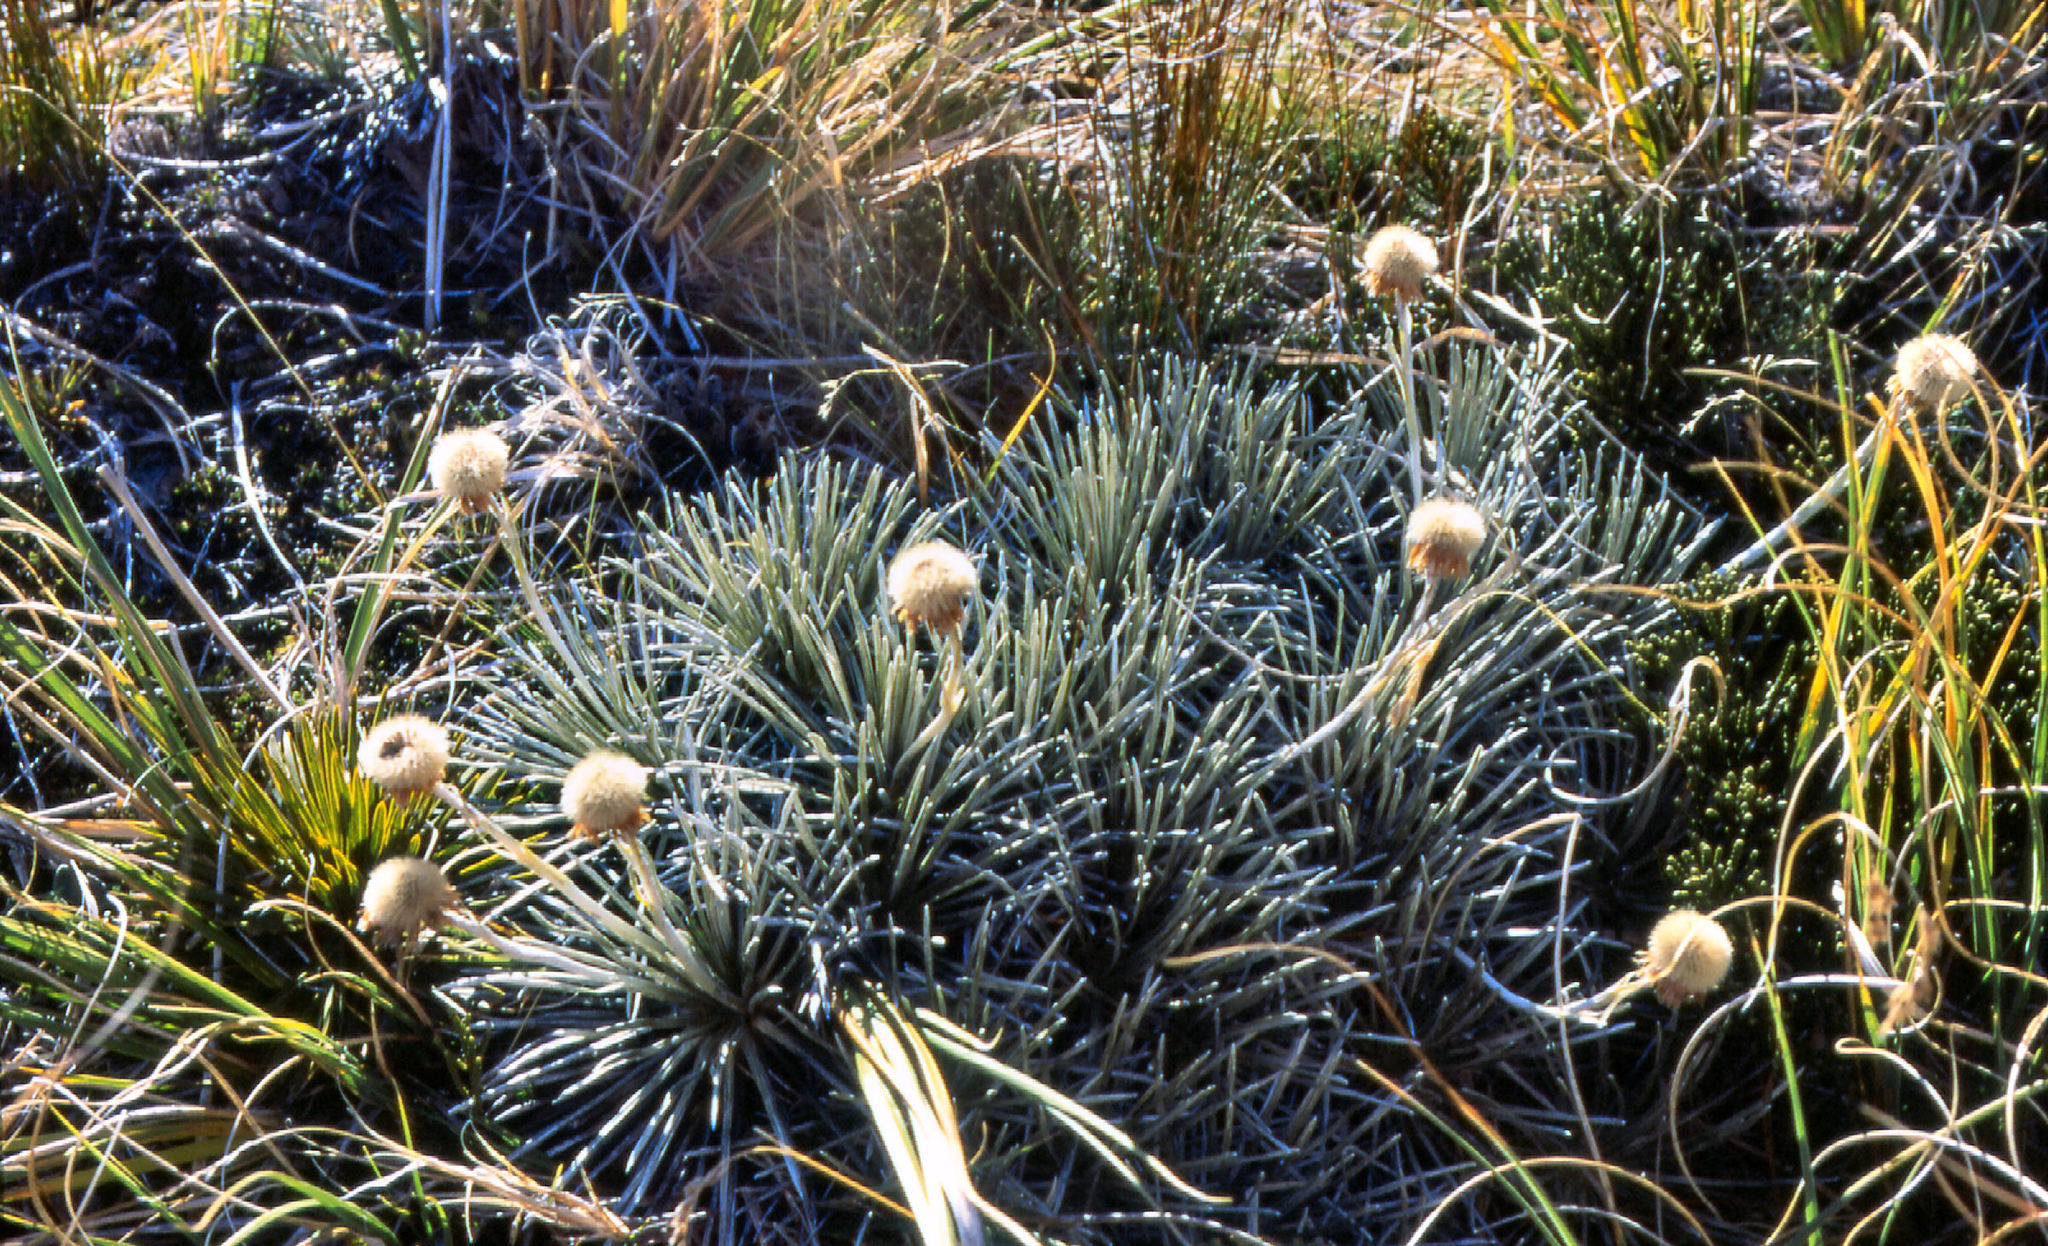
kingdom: Plantae
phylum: Tracheophyta
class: Magnoliopsida
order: Asterales
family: Asteraceae
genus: Celmisia
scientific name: Celmisia markii
